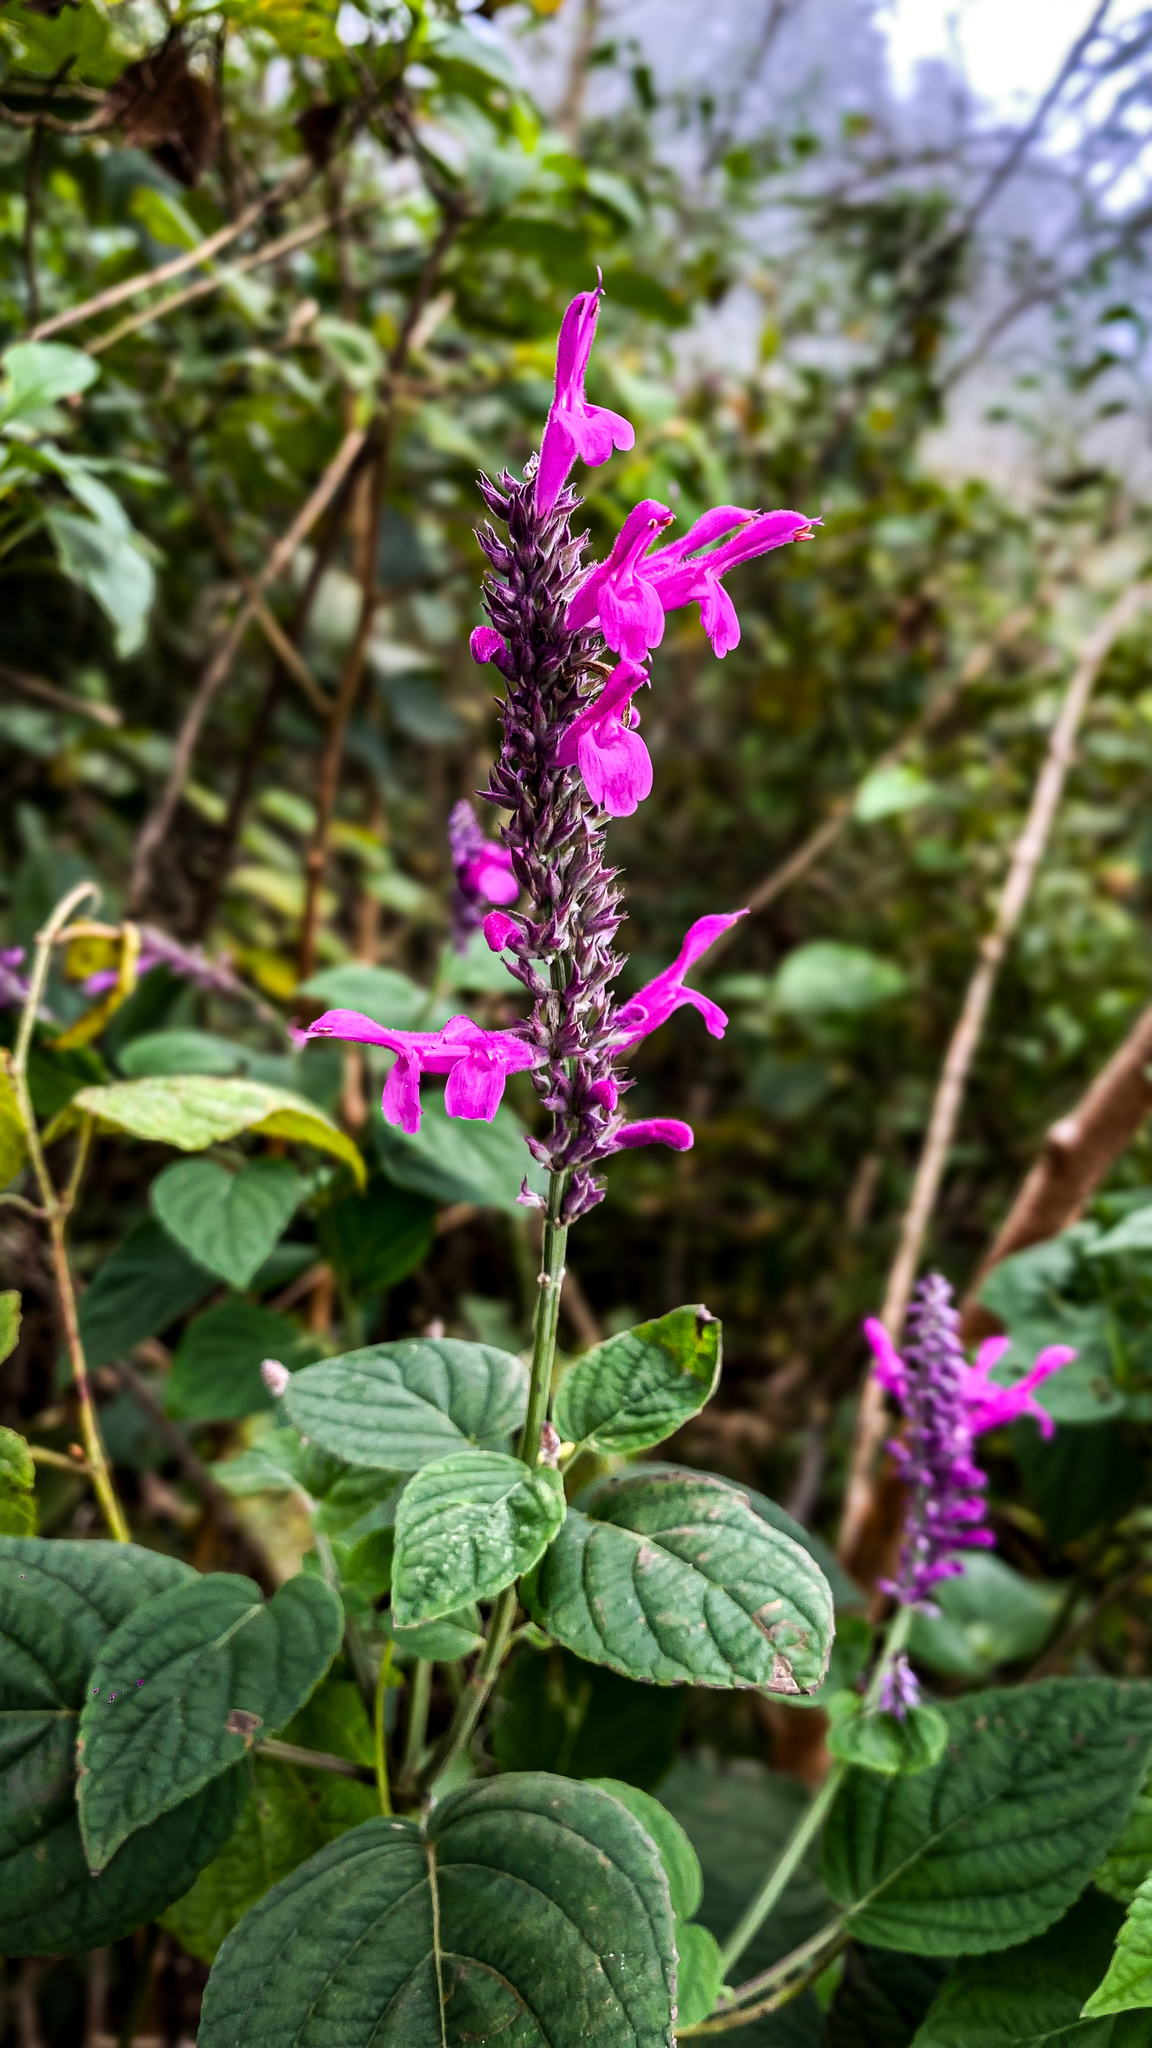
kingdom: Plantae
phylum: Tracheophyta
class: Magnoliopsida
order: Lamiales
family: Lamiaceae
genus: Salvia
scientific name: Salvia purpurea
